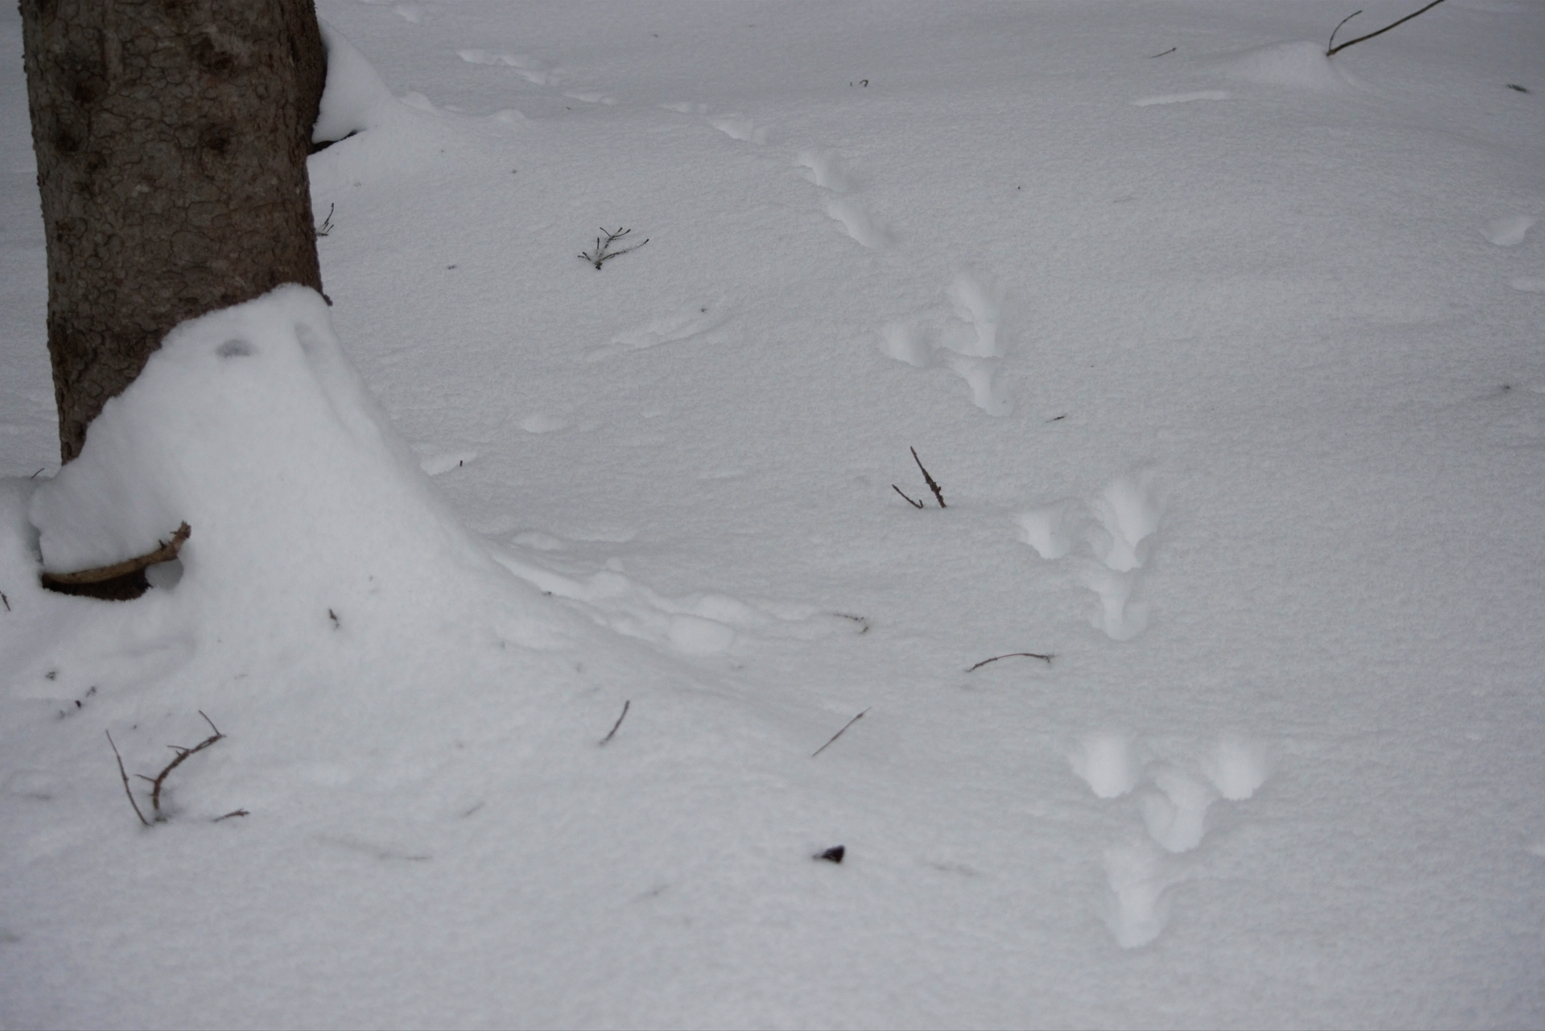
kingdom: Animalia
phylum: Chordata
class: Mammalia
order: Lagomorpha
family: Leporidae
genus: Lepus
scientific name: Lepus americanus
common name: Snowshoe hare
